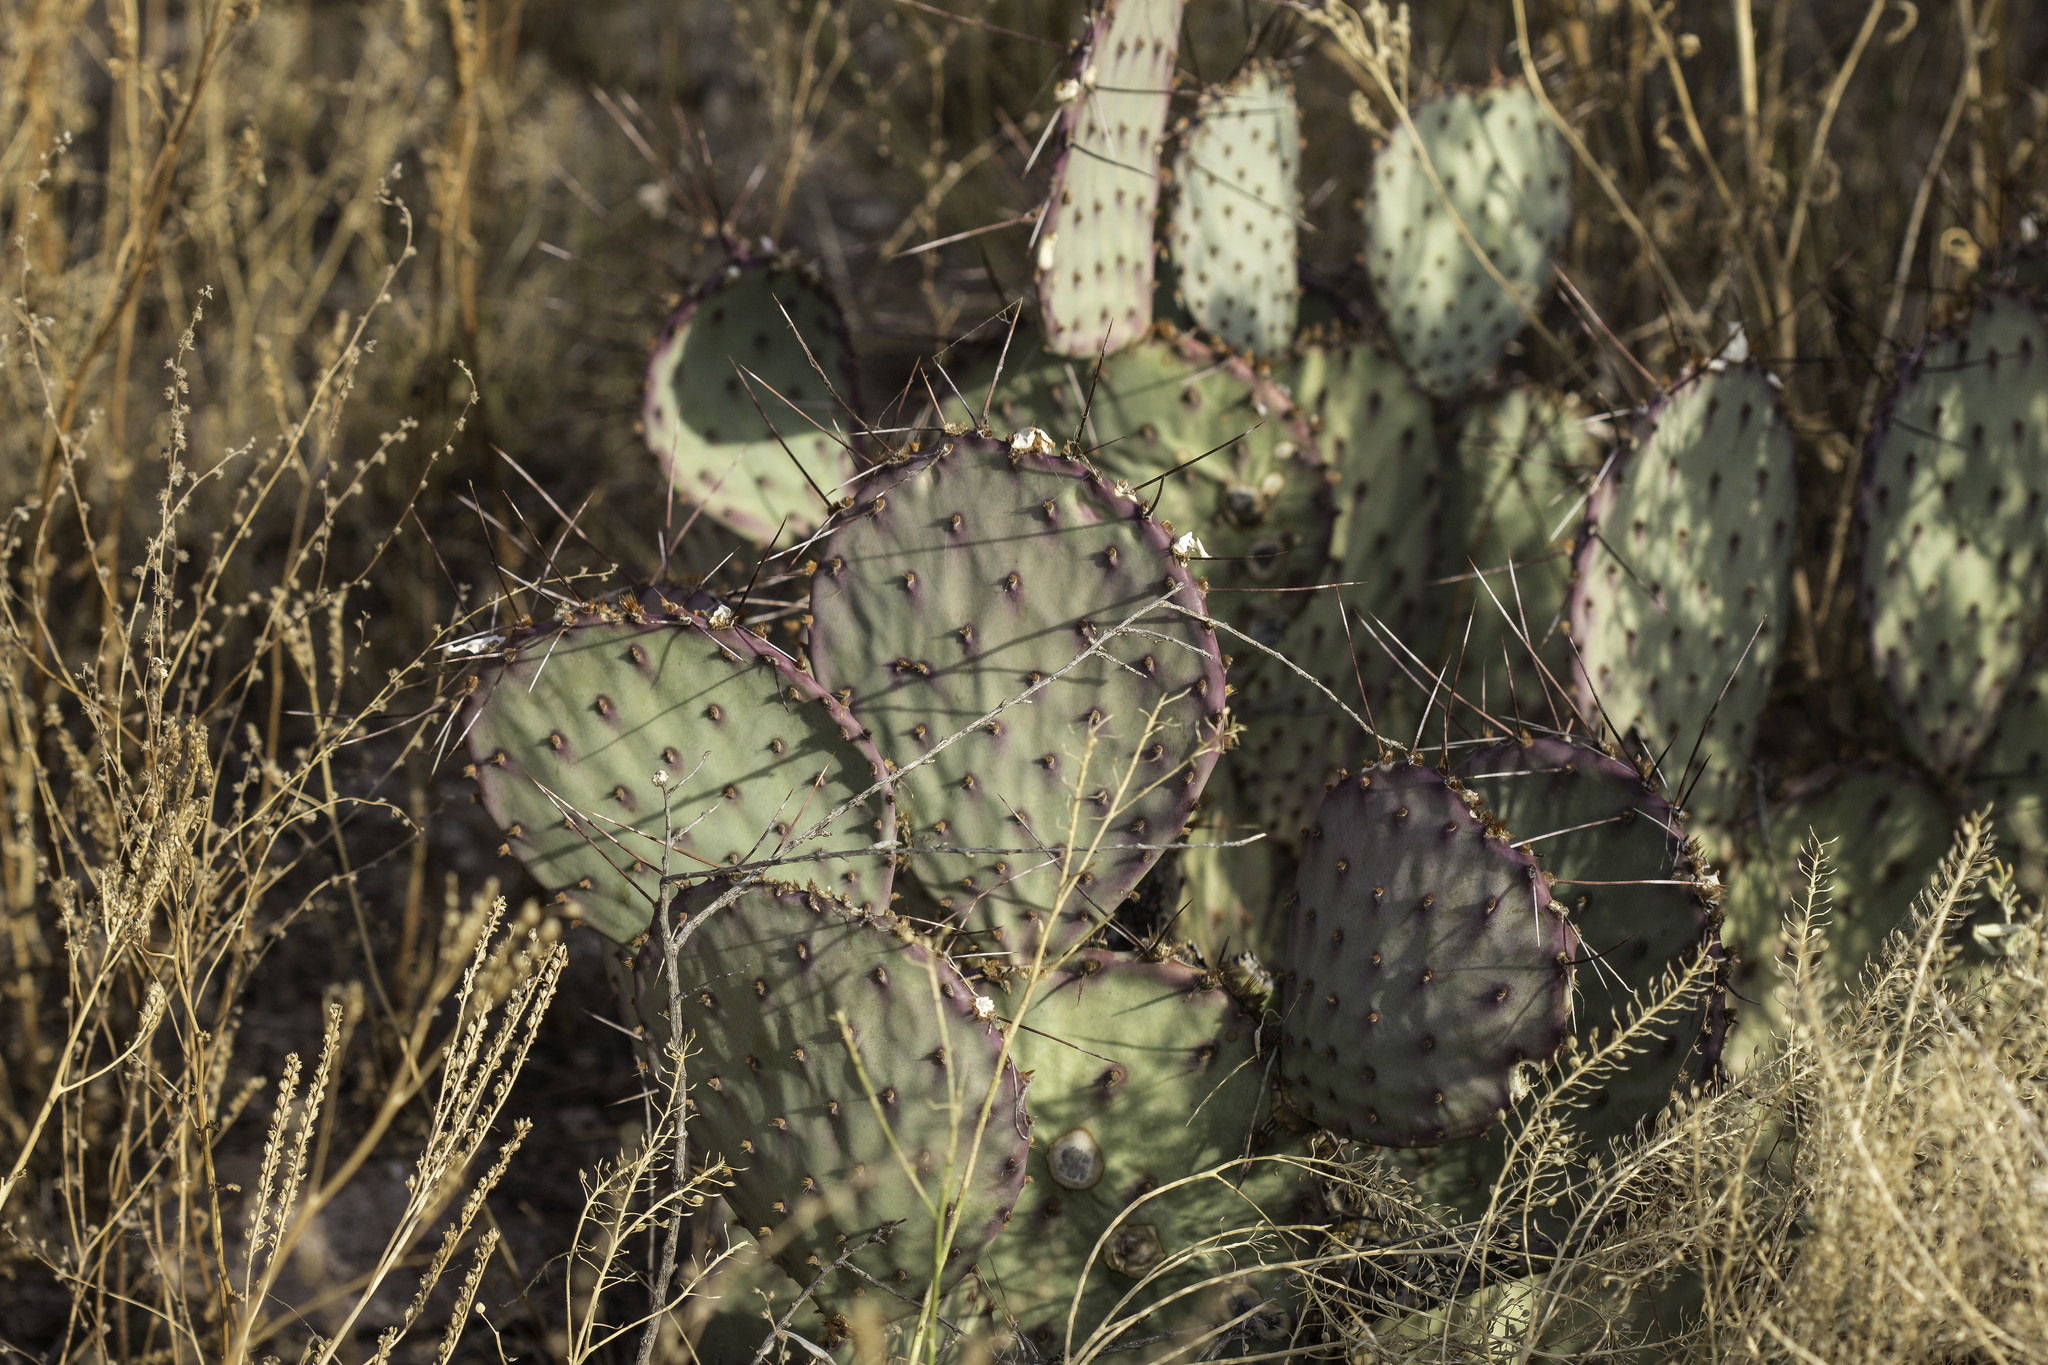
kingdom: Plantae
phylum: Tracheophyta
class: Magnoliopsida
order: Caryophyllales
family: Cactaceae
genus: Opuntia
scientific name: Opuntia macrocentra
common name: Purple prickly-pear
